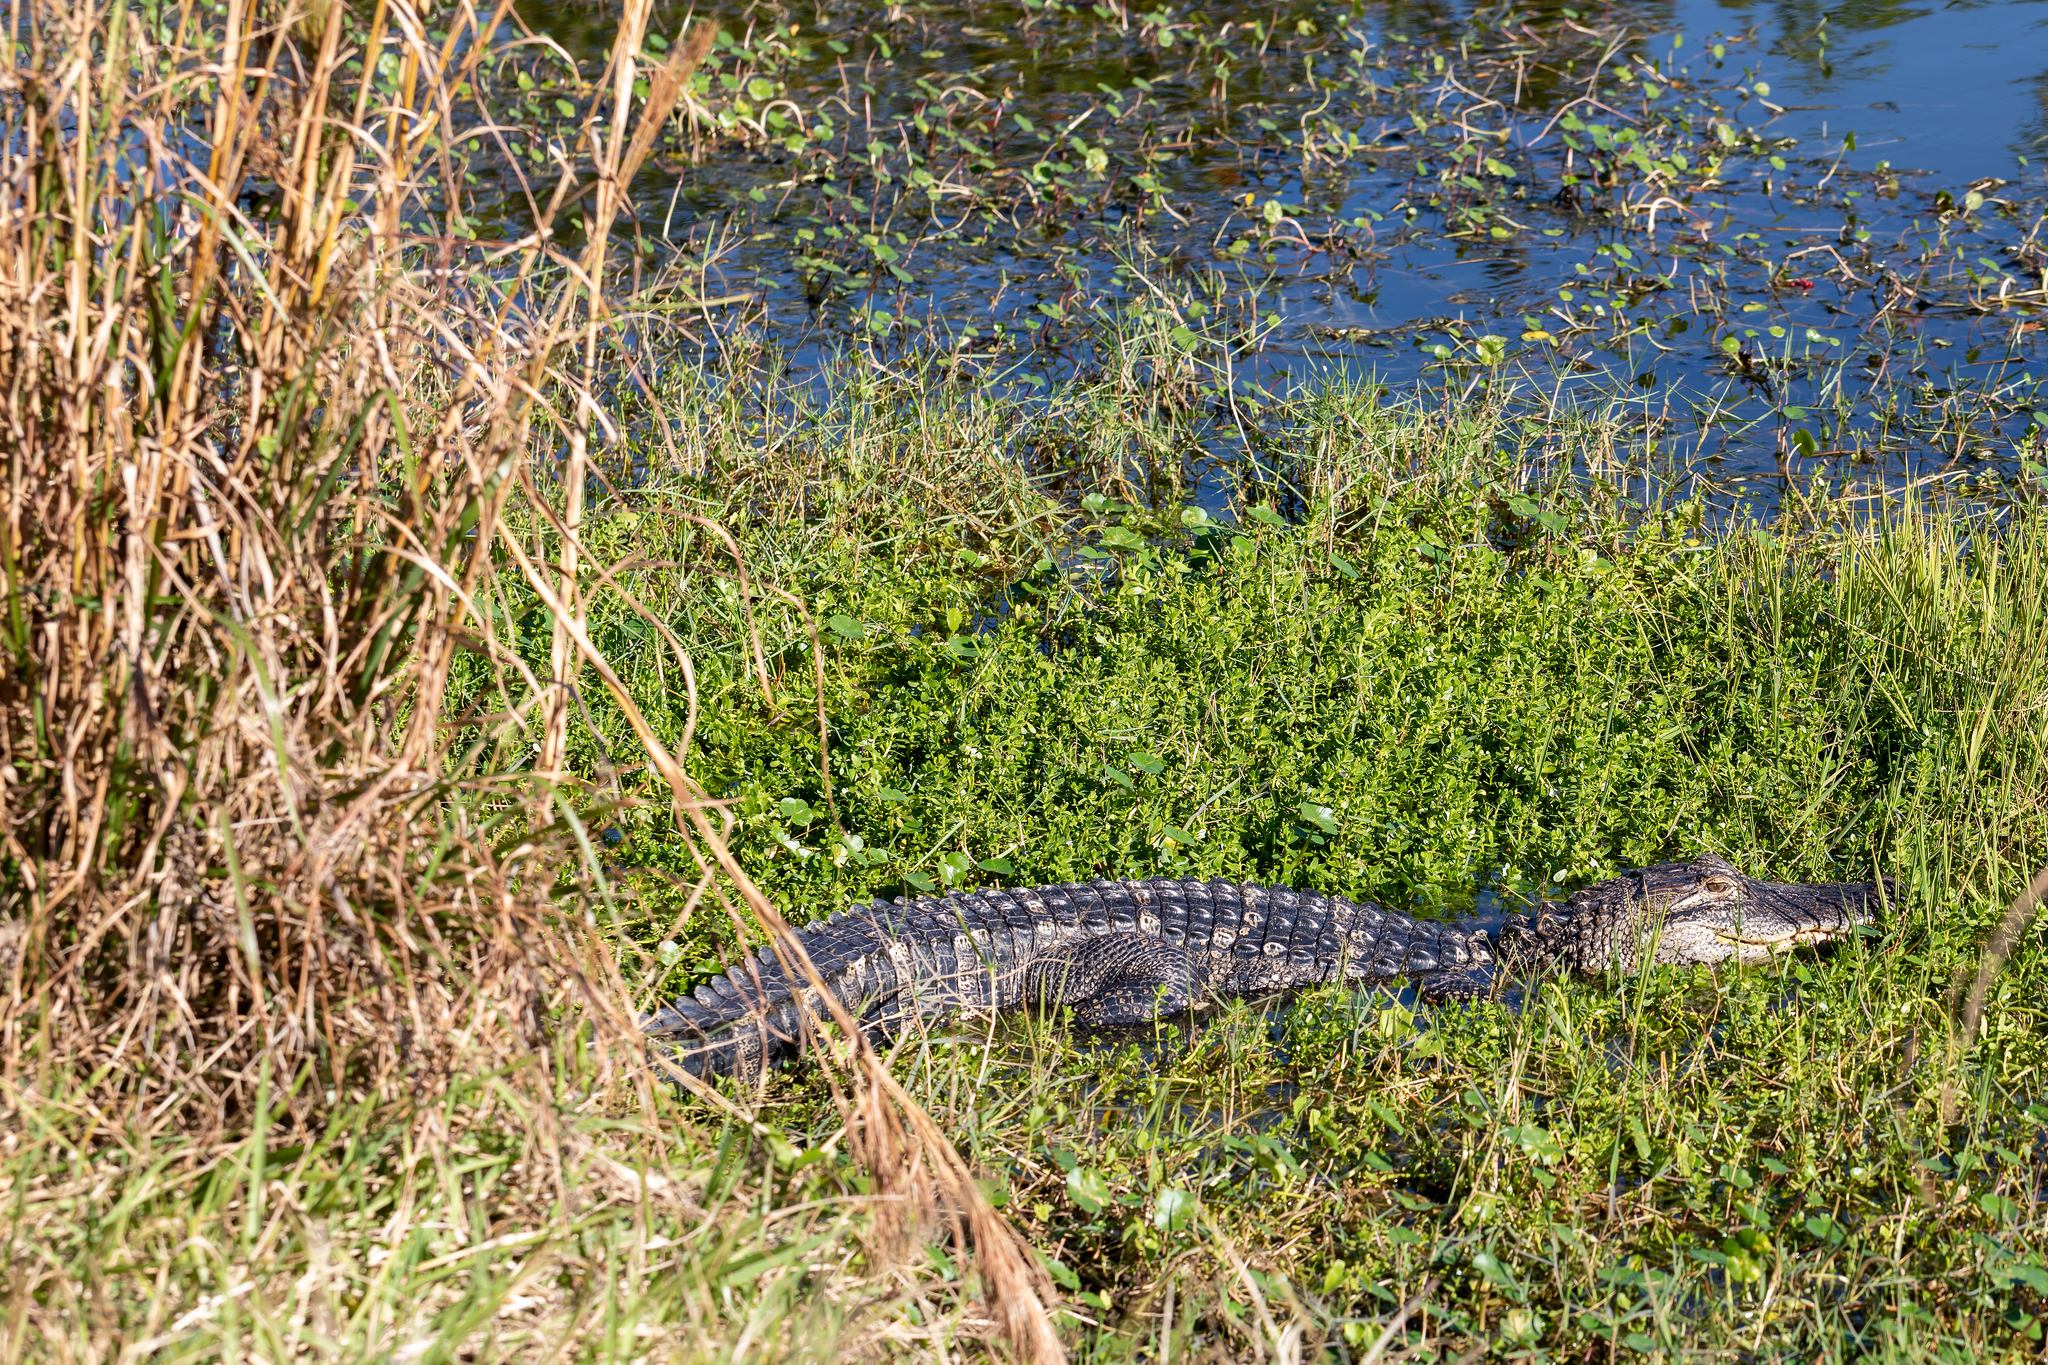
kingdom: Animalia
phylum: Chordata
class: Crocodylia
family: Alligatoridae
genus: Alligator
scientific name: Alligator mississippiensis
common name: American alligator
